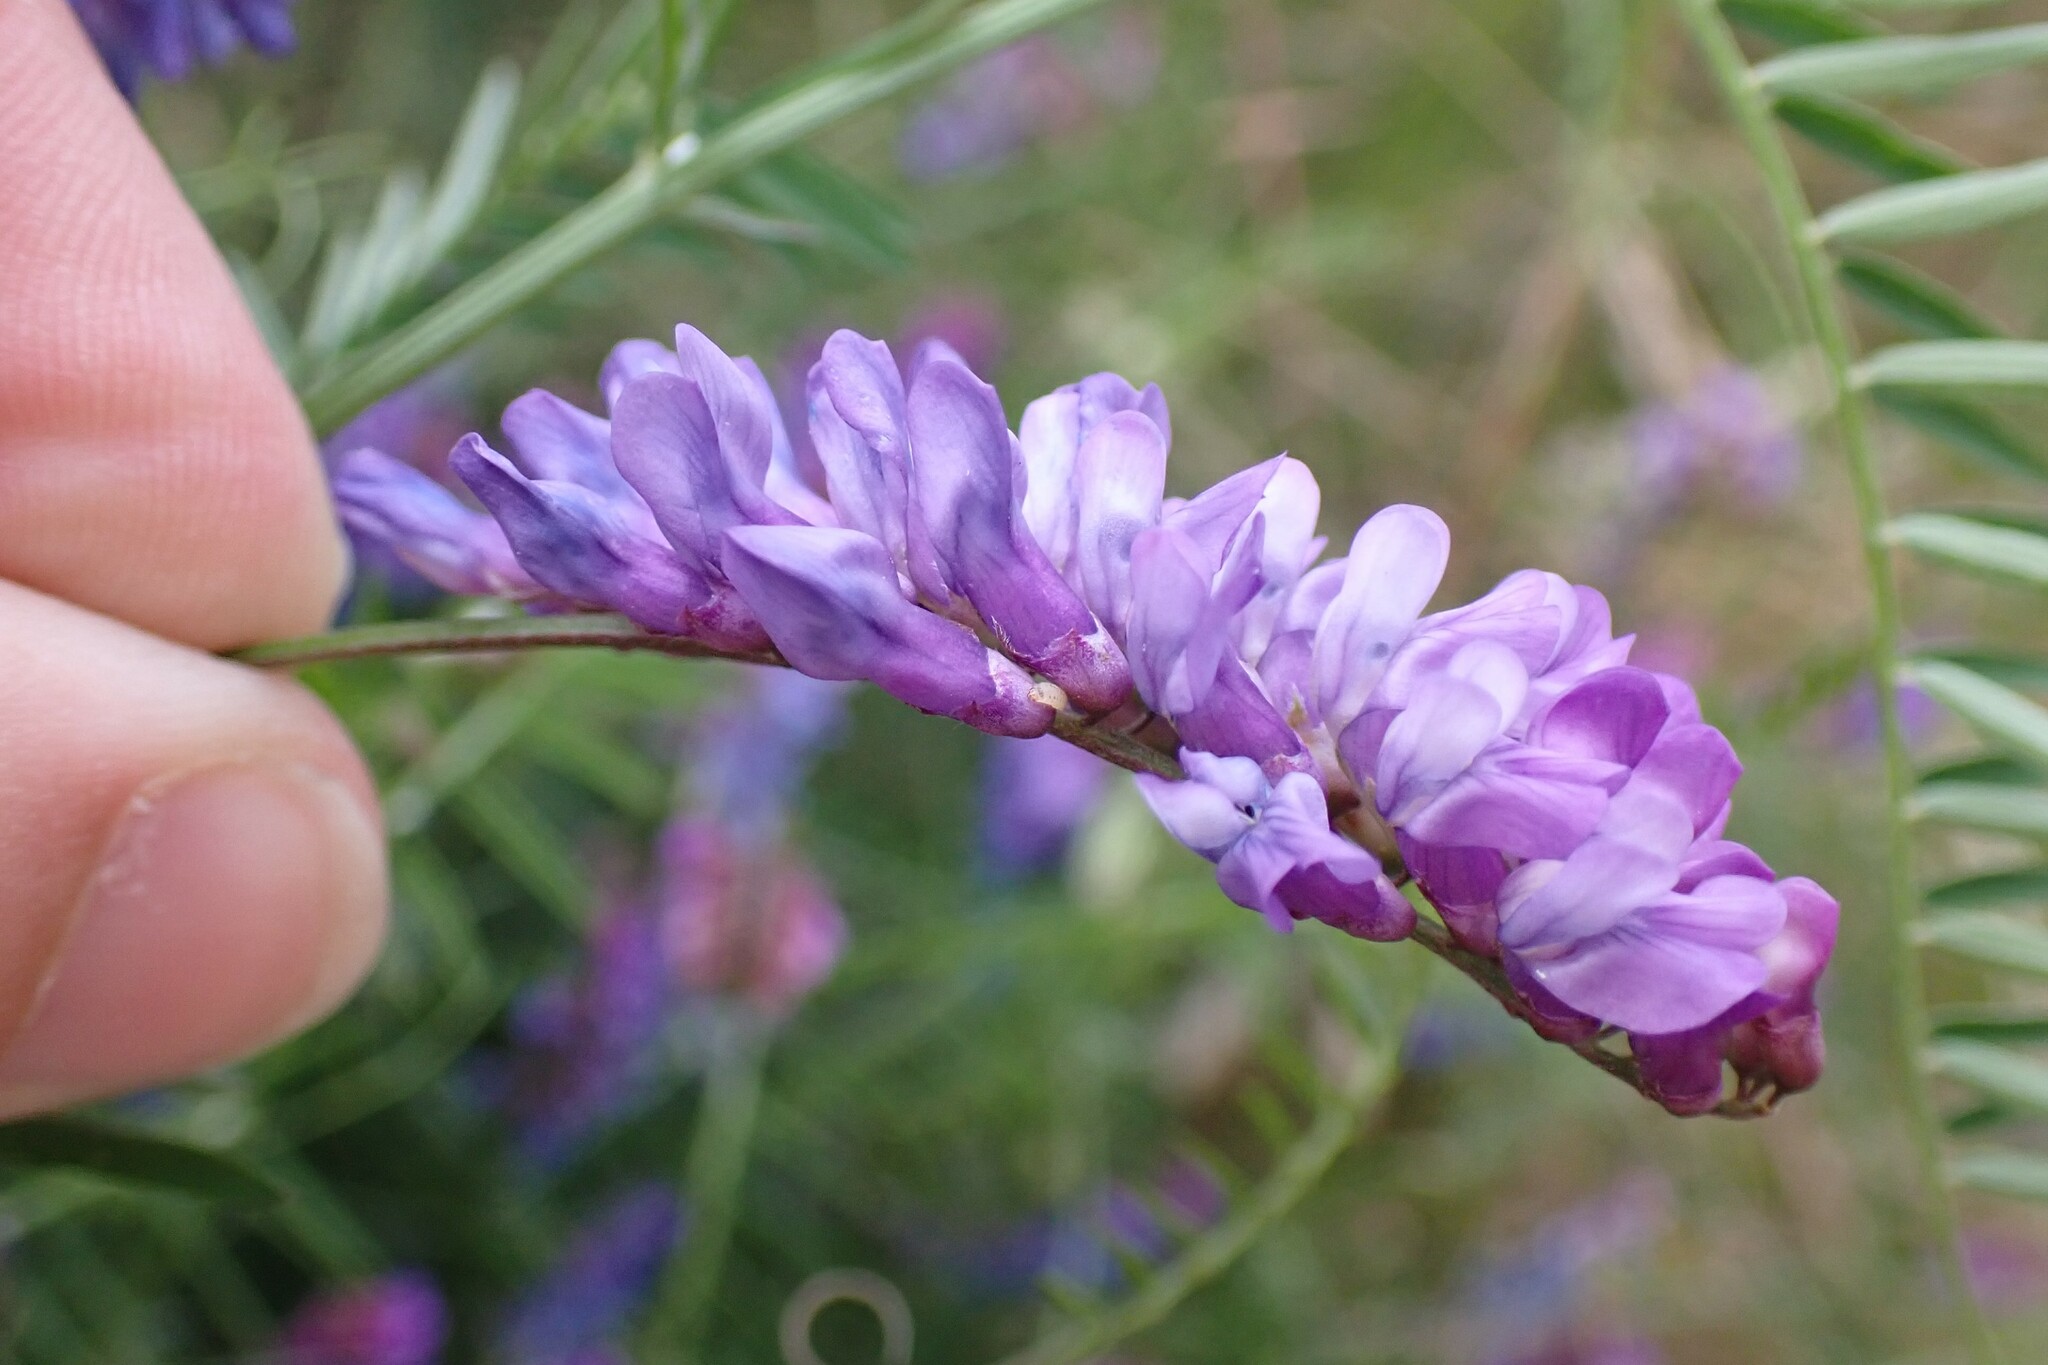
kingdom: Plantae
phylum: Tracheophyta
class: Magnoliopsida
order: Fabales
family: Fabaceae
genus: Vicia
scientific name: Vicia cracca
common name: Bird vetch
